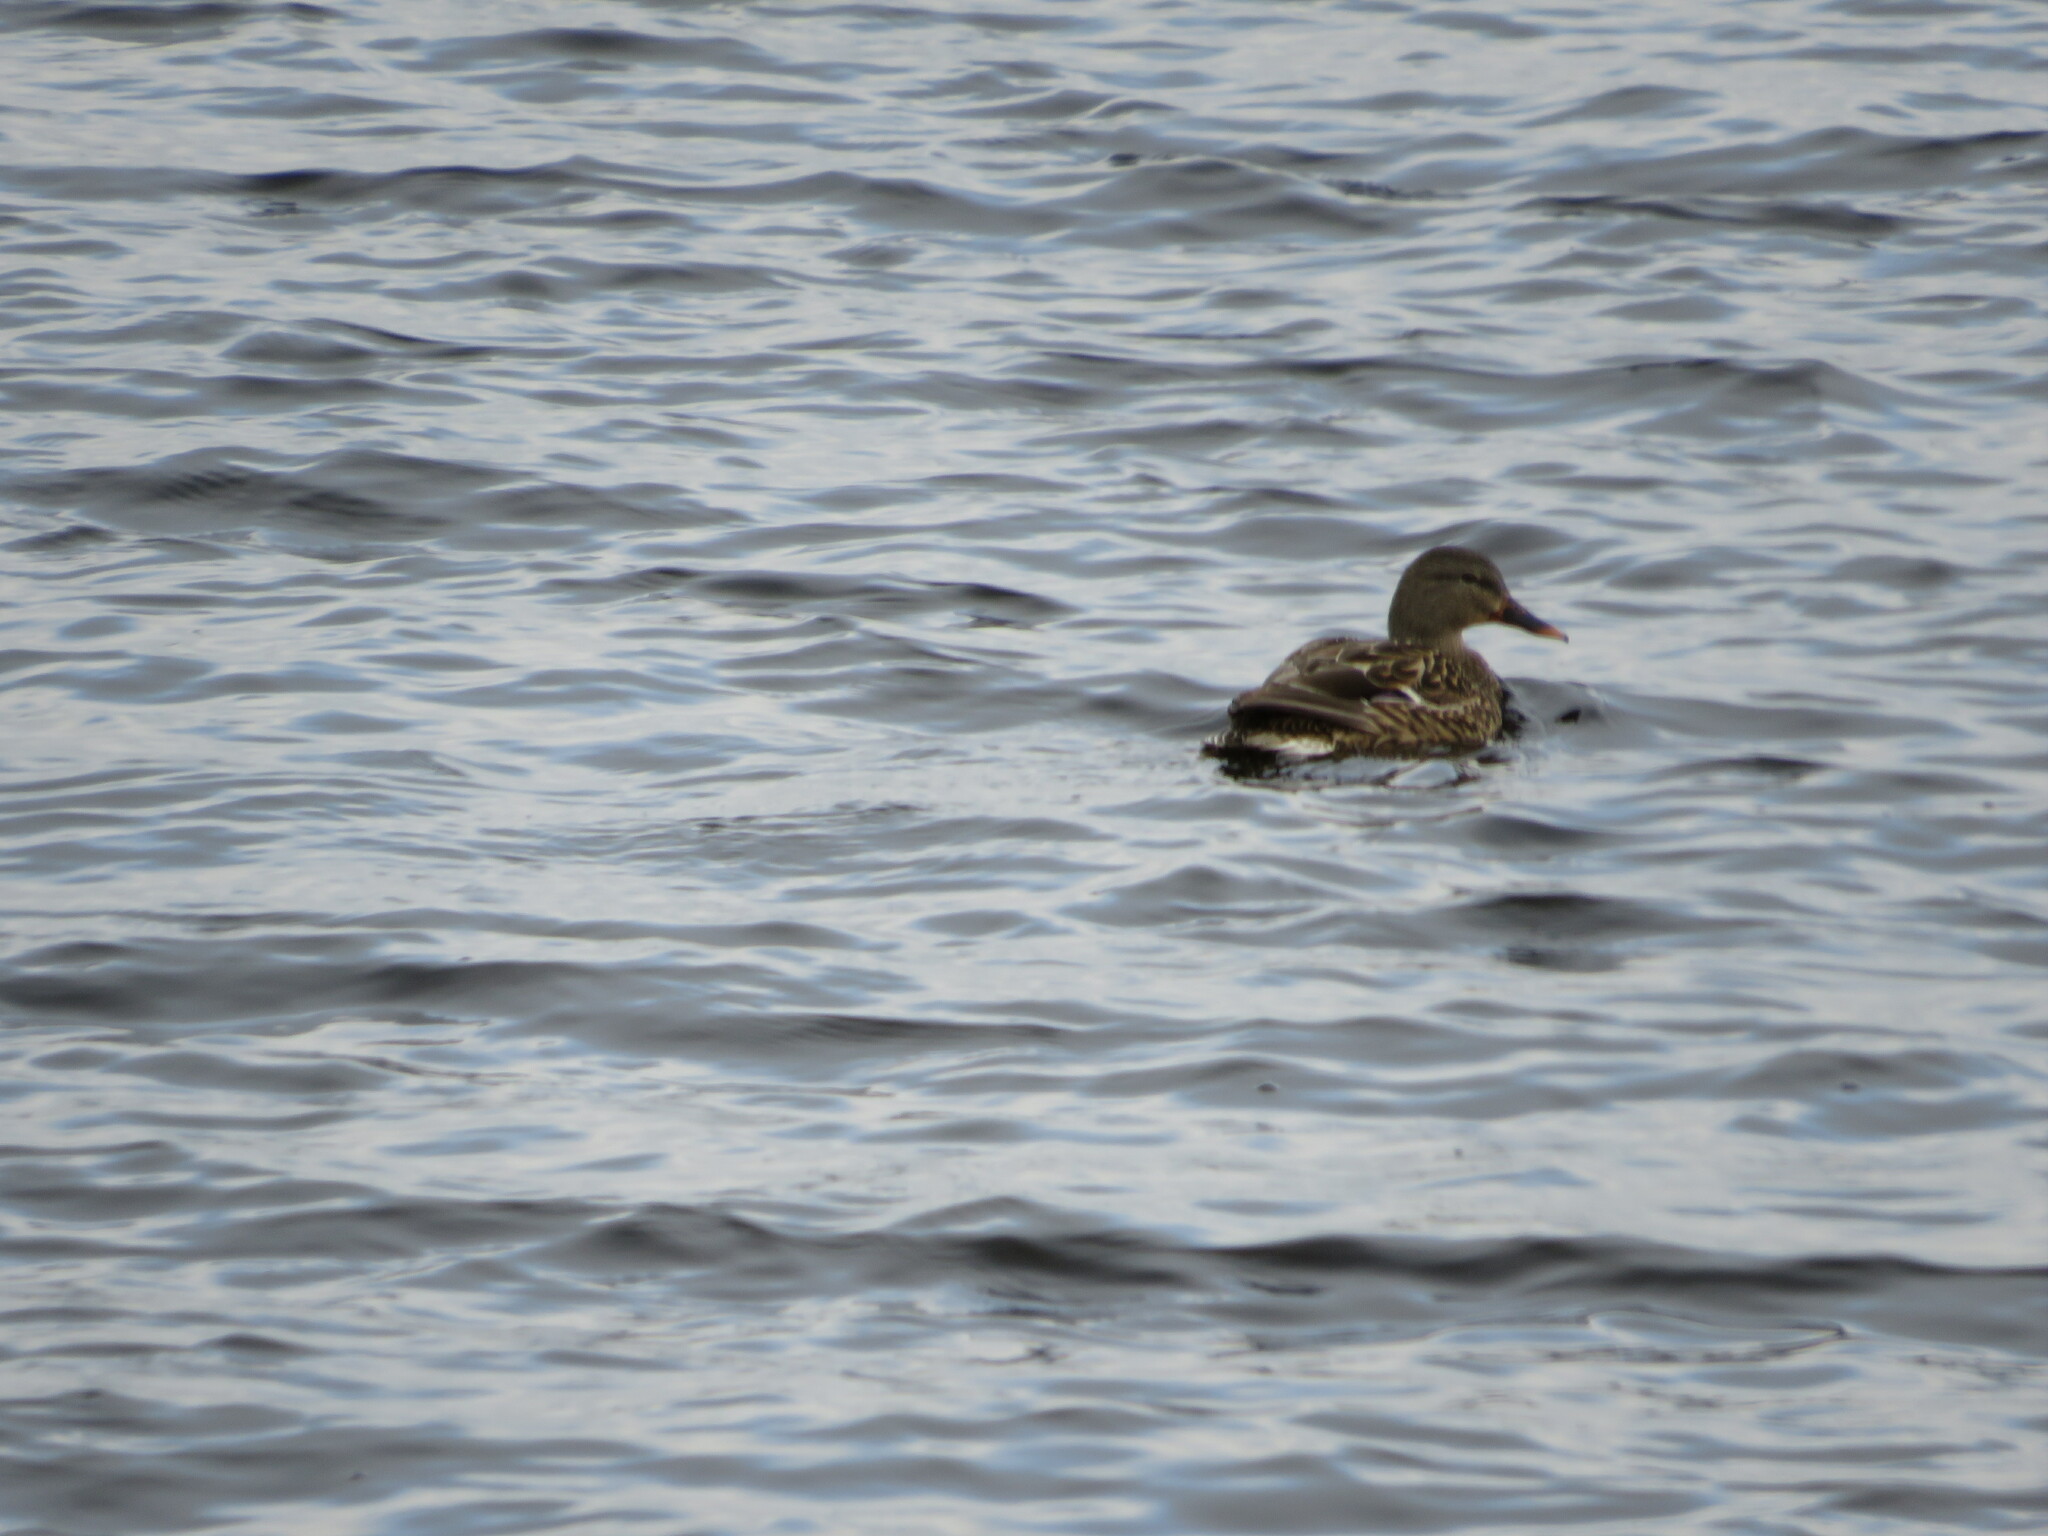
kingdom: Animalia
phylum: Chordata
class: Aves
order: Anseriformes
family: Anatidae
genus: Anas
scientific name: Anas platyrhynchos
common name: Mallard
